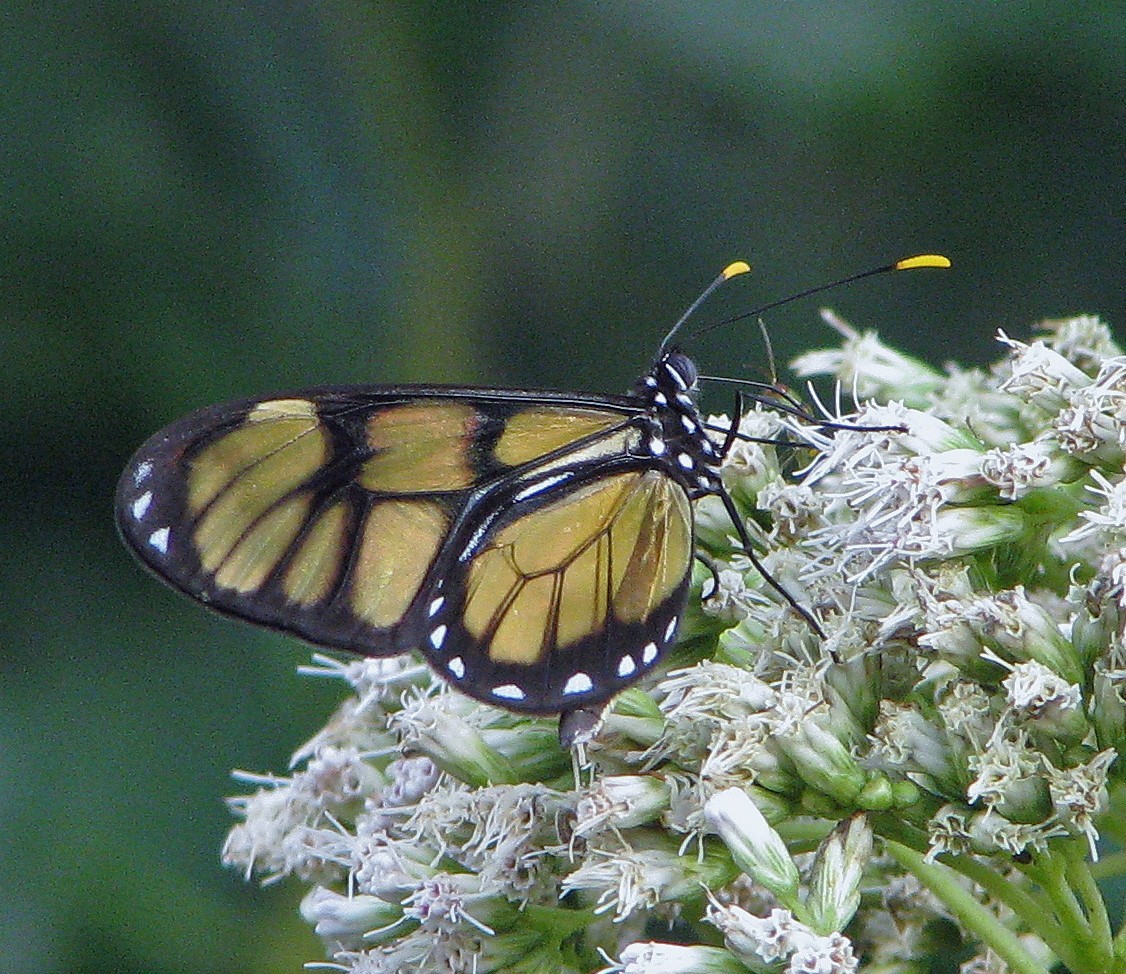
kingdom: Animalia
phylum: Arthropoda
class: Insecta
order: Lepidoptera
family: Nymphalidae
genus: Dircenna
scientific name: Dircenna dero
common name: Dero clearwing
